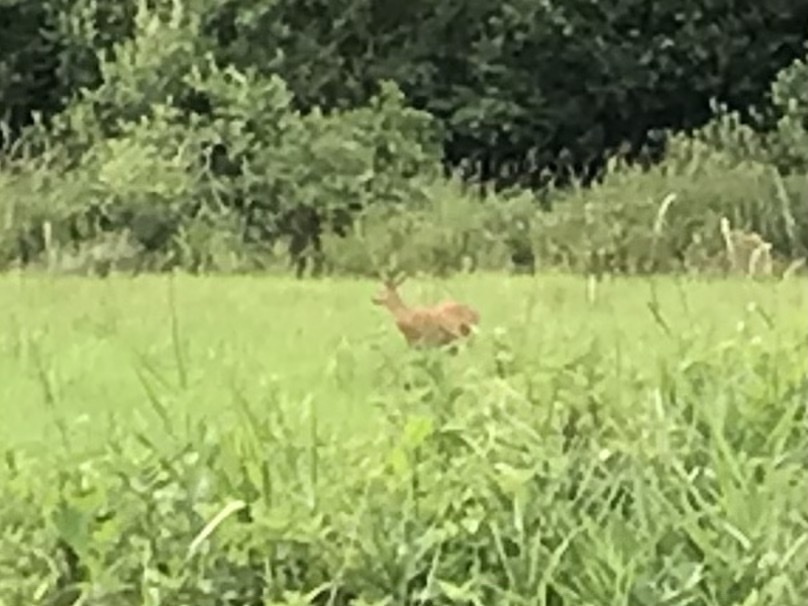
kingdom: Animalia
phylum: Chordata
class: Mammalia
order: Artiodactyla
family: Cervidae
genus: Capreolus
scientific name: Capreolus capreolus
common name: Western roe deer
